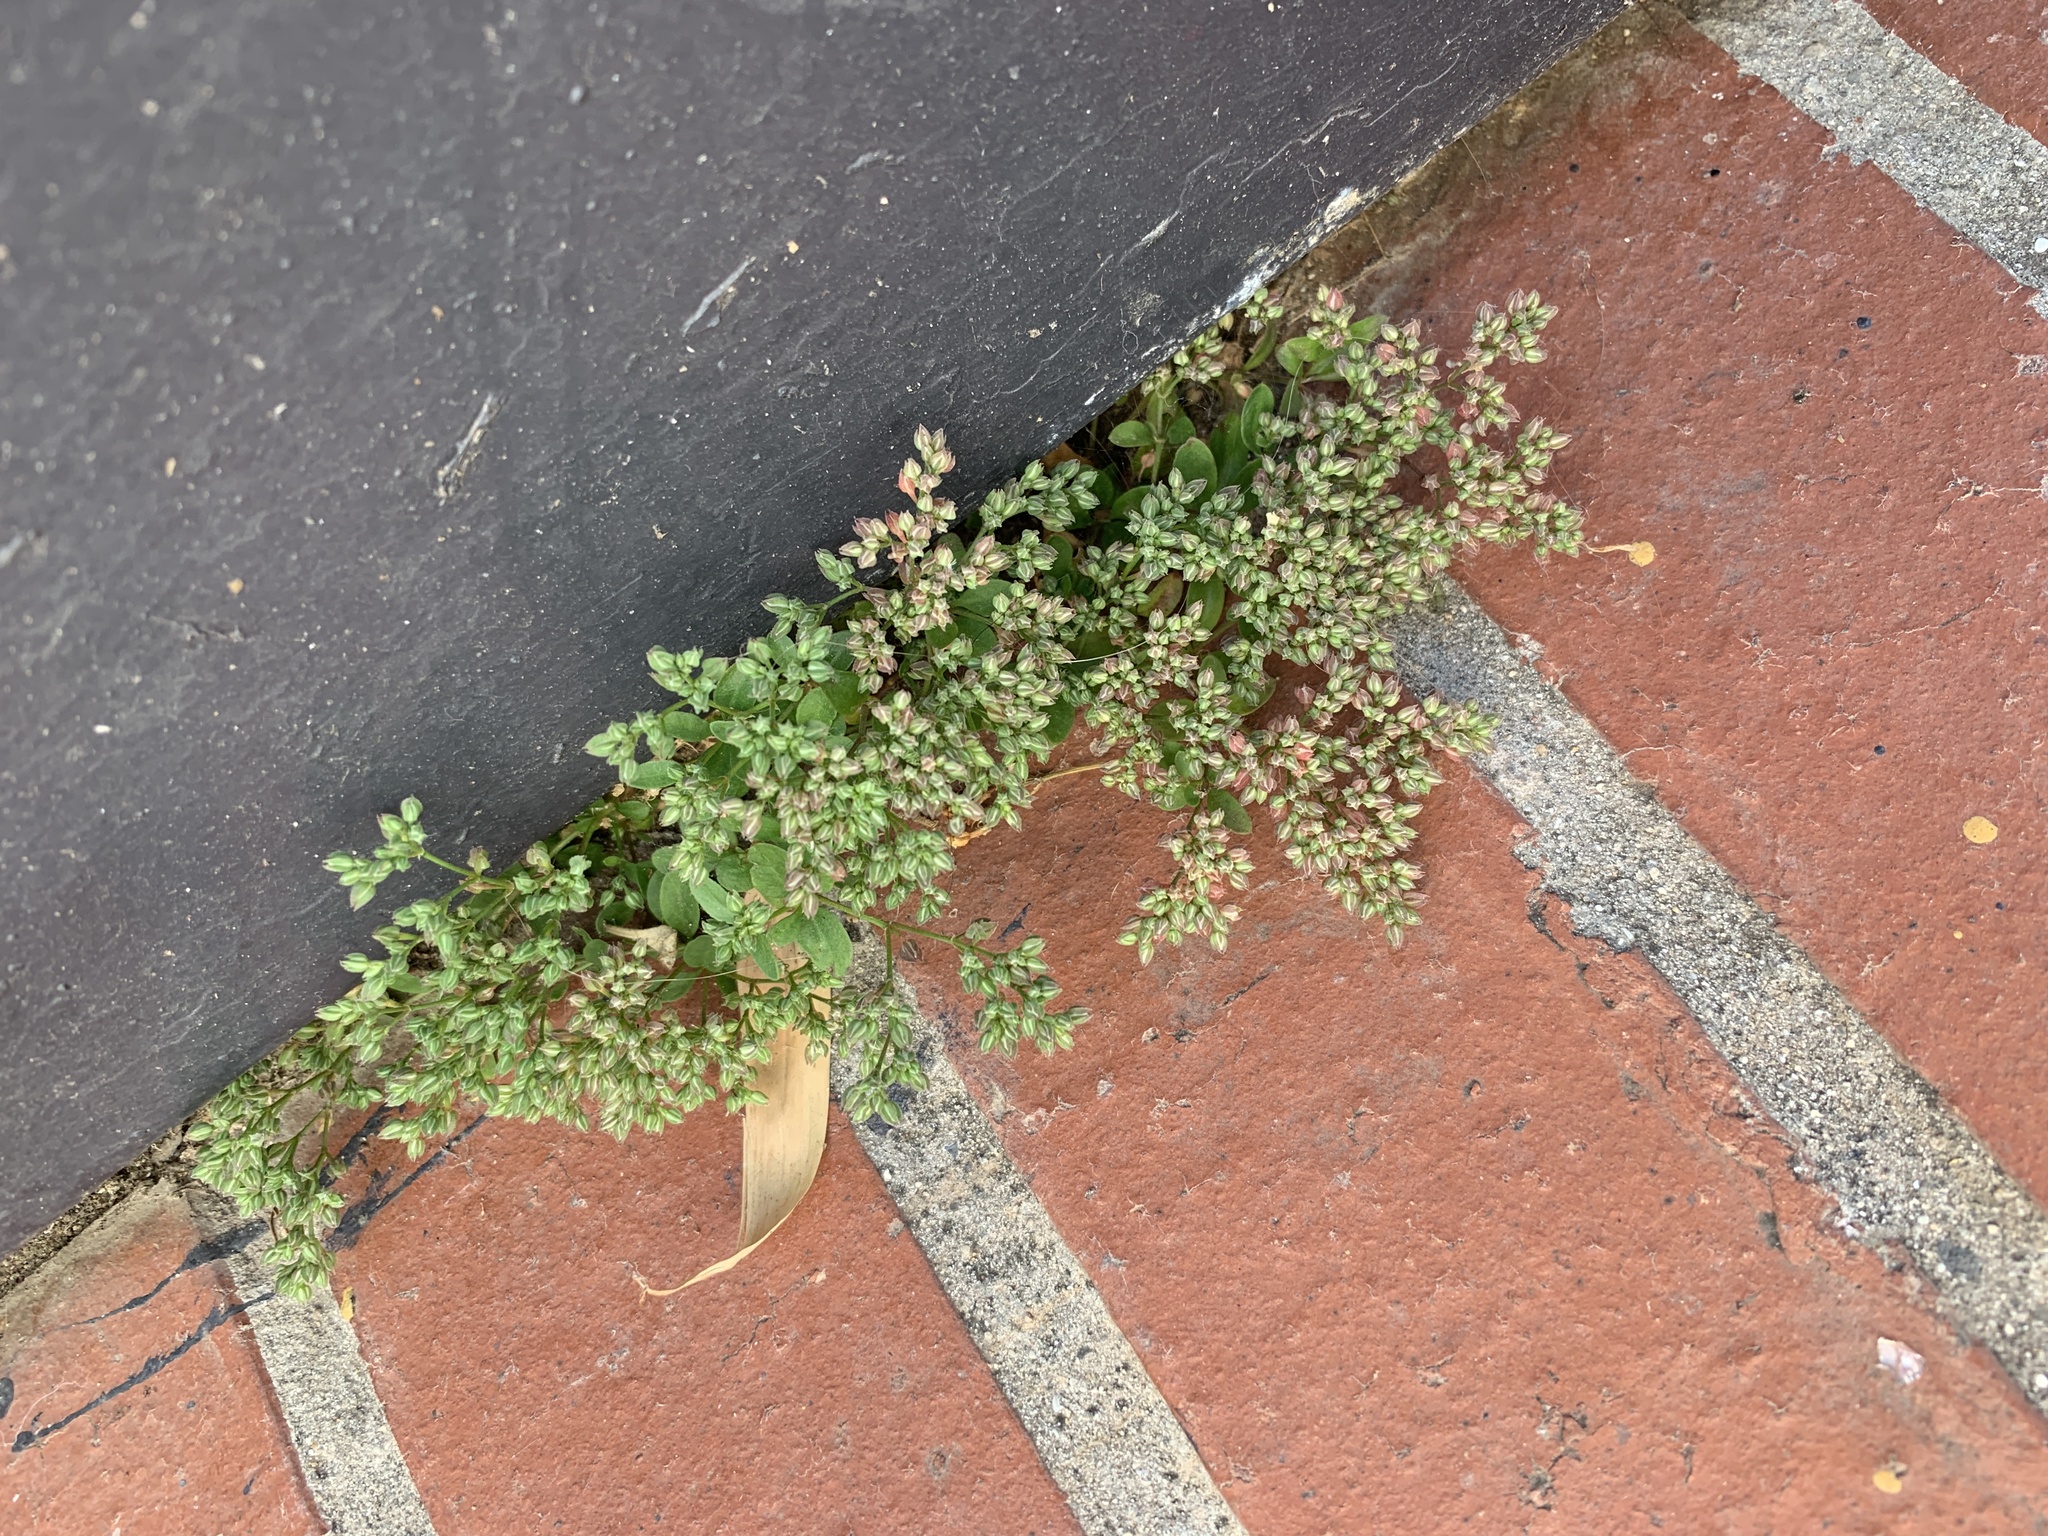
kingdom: Plantae
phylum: Tracheophyta
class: Magnoliopsida
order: Caryophyllales
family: Caryophyllaceae
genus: Polycarpon
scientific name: Polycarpon tetraphyllum
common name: Four-leaved all-seed
